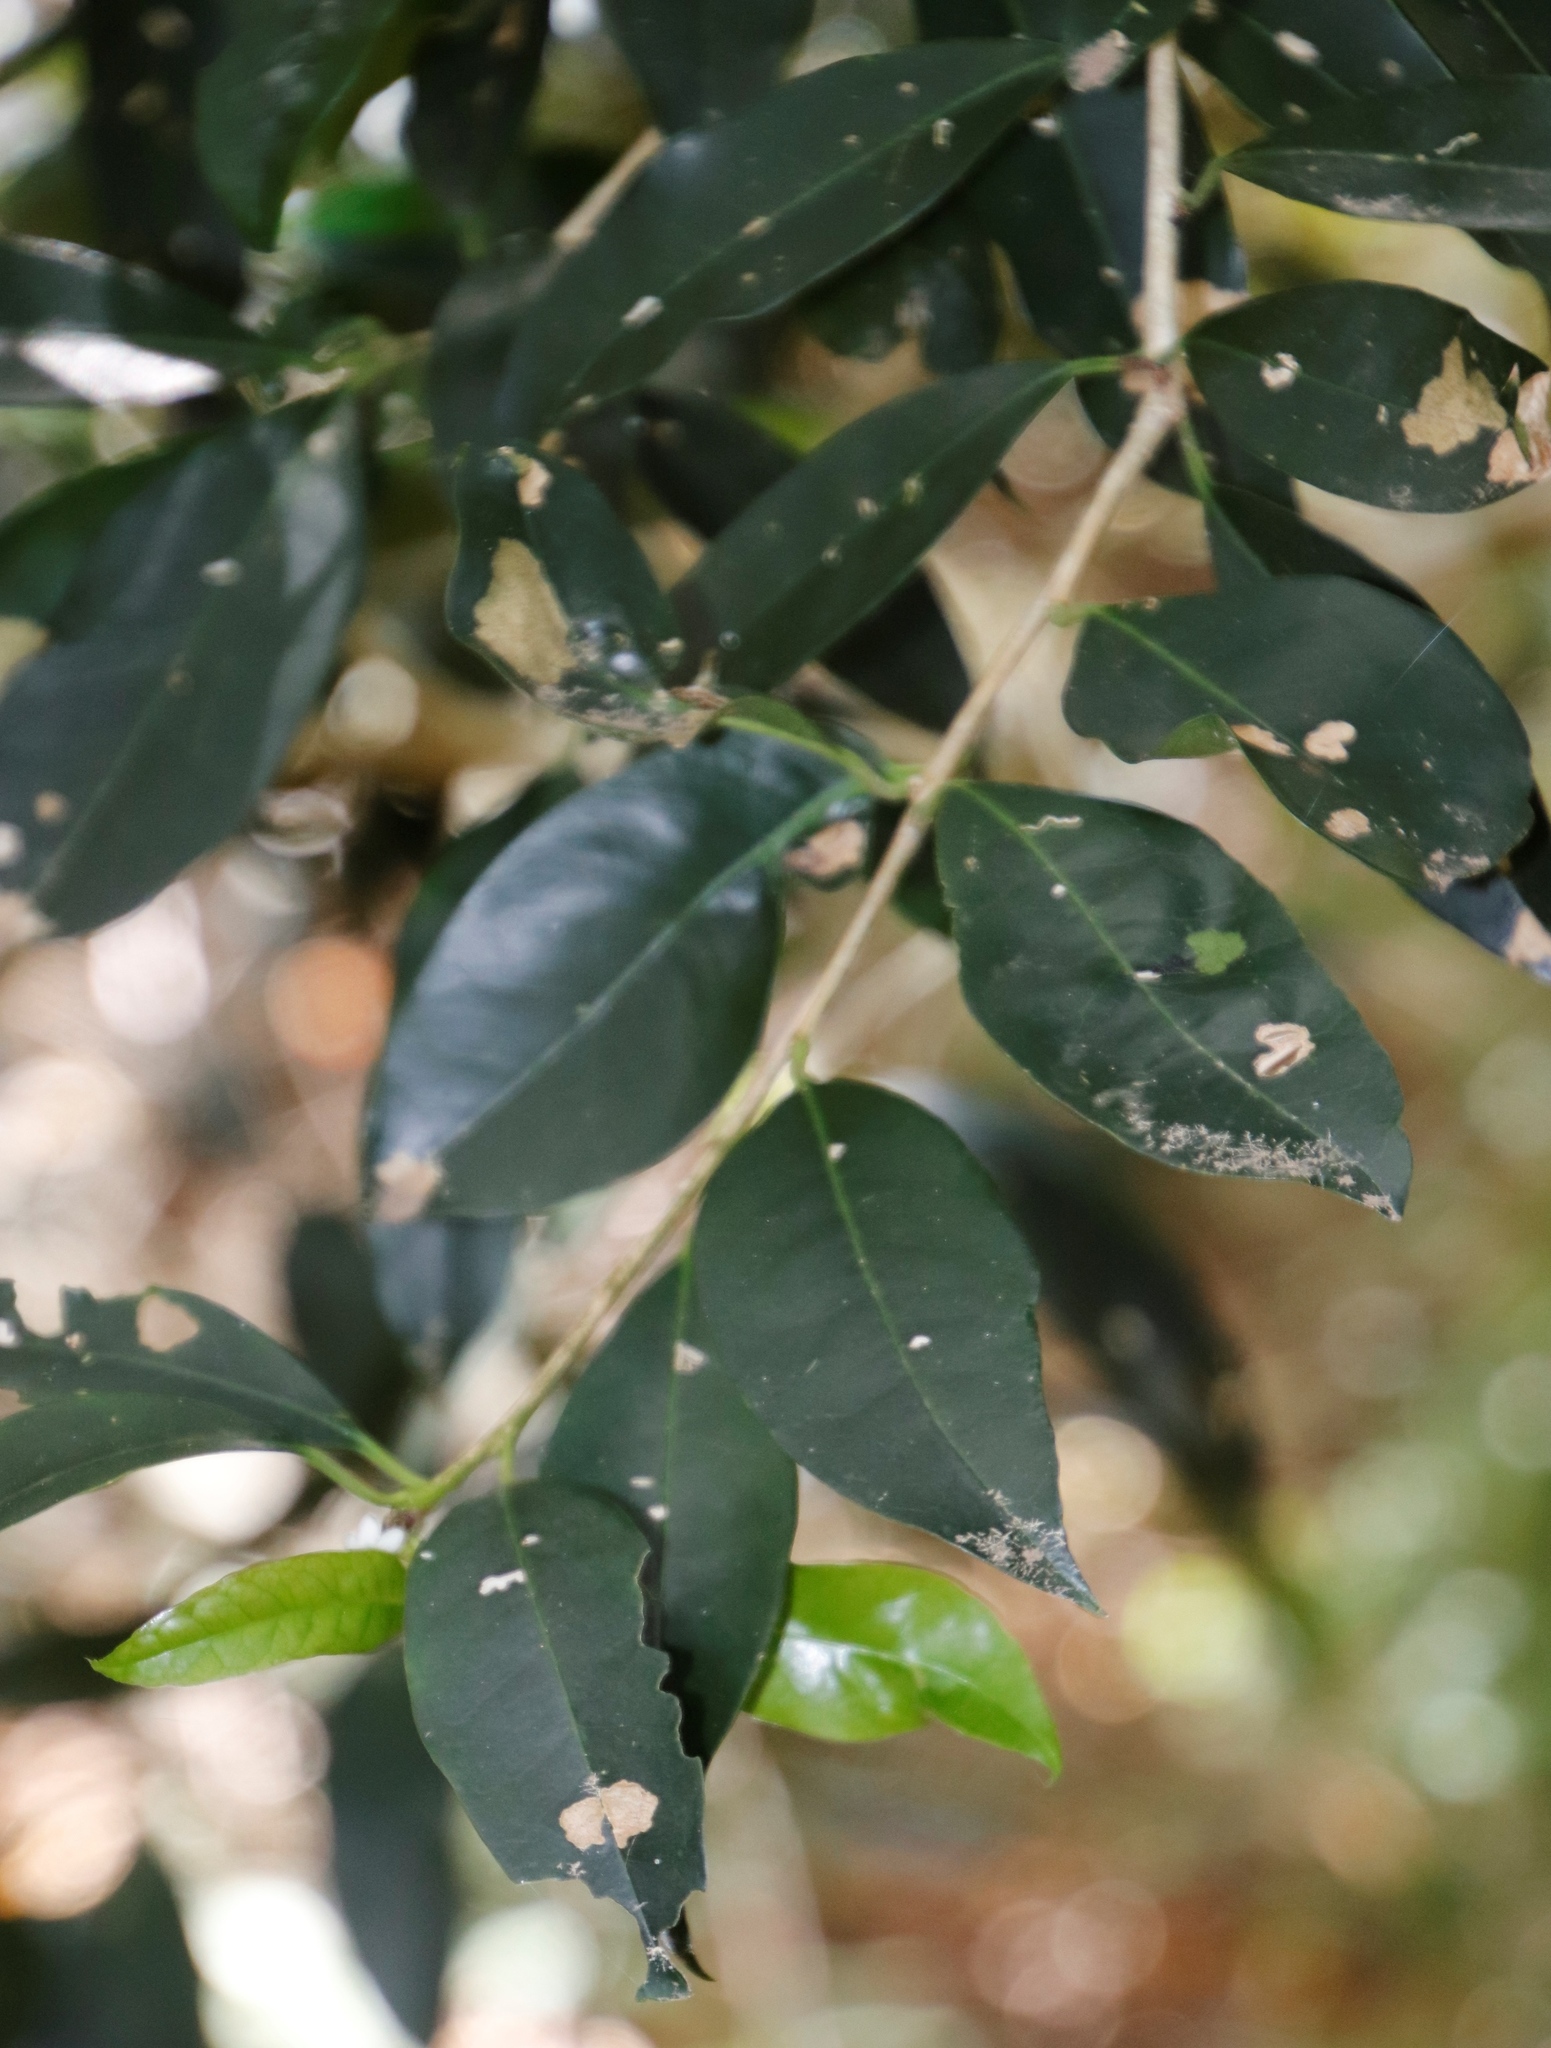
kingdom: Plantae
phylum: Tracheophyta
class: Magnoliopsida
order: Aquifoliales
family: Aquifoliaceae
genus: Ilex
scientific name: Ilex mitis
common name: African holly
